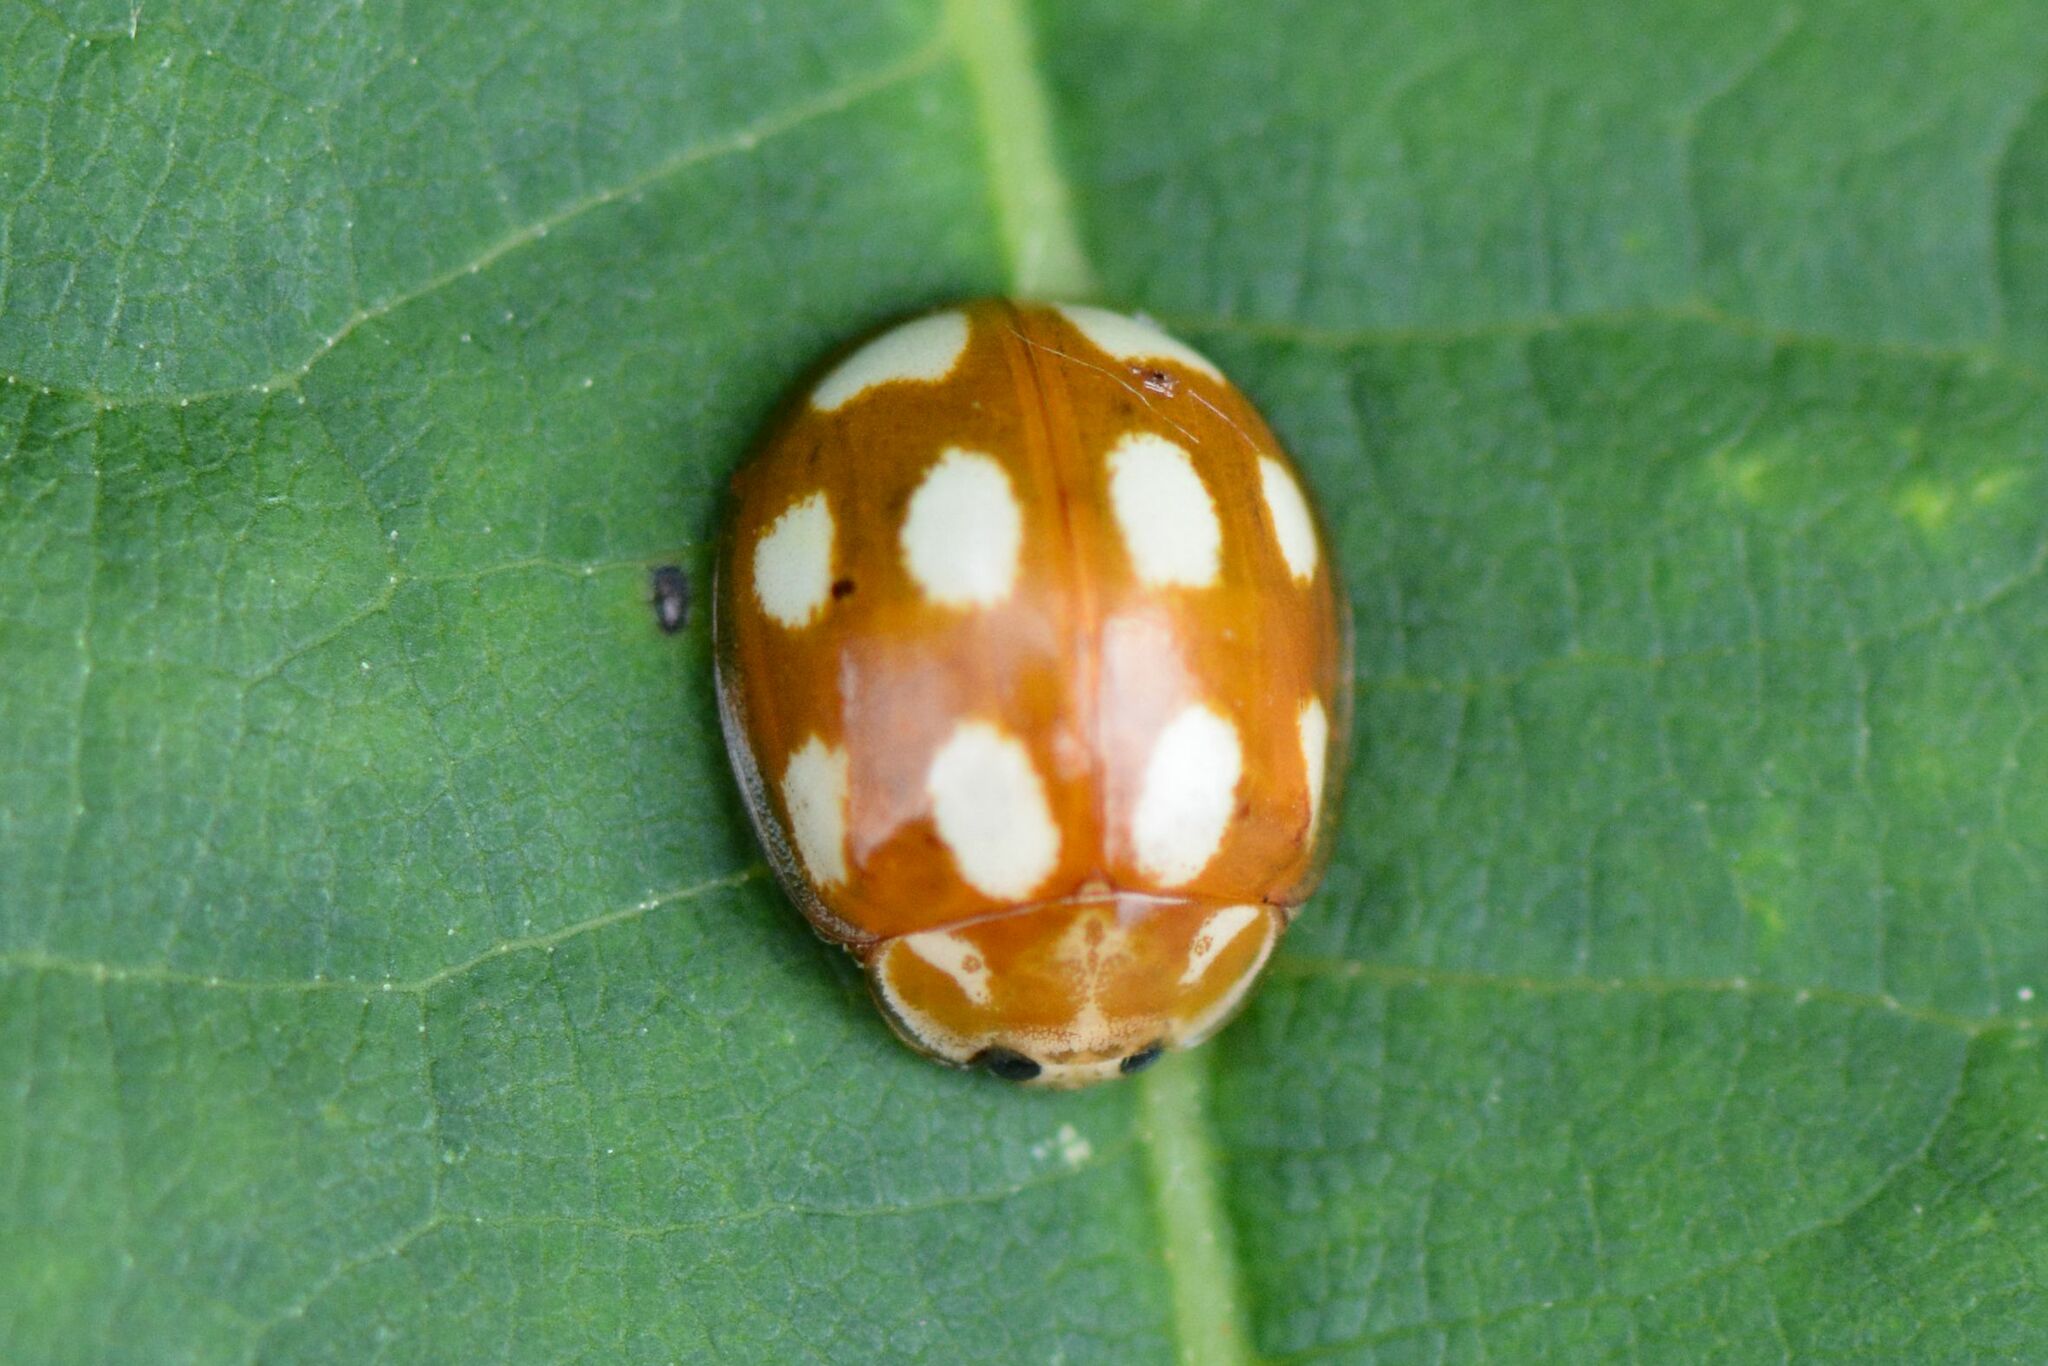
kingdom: Animalia
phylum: Arthropoda
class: Insecta
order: Coleoptera
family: Coccinellidae
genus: Calvia
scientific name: Calvia decemguttata
